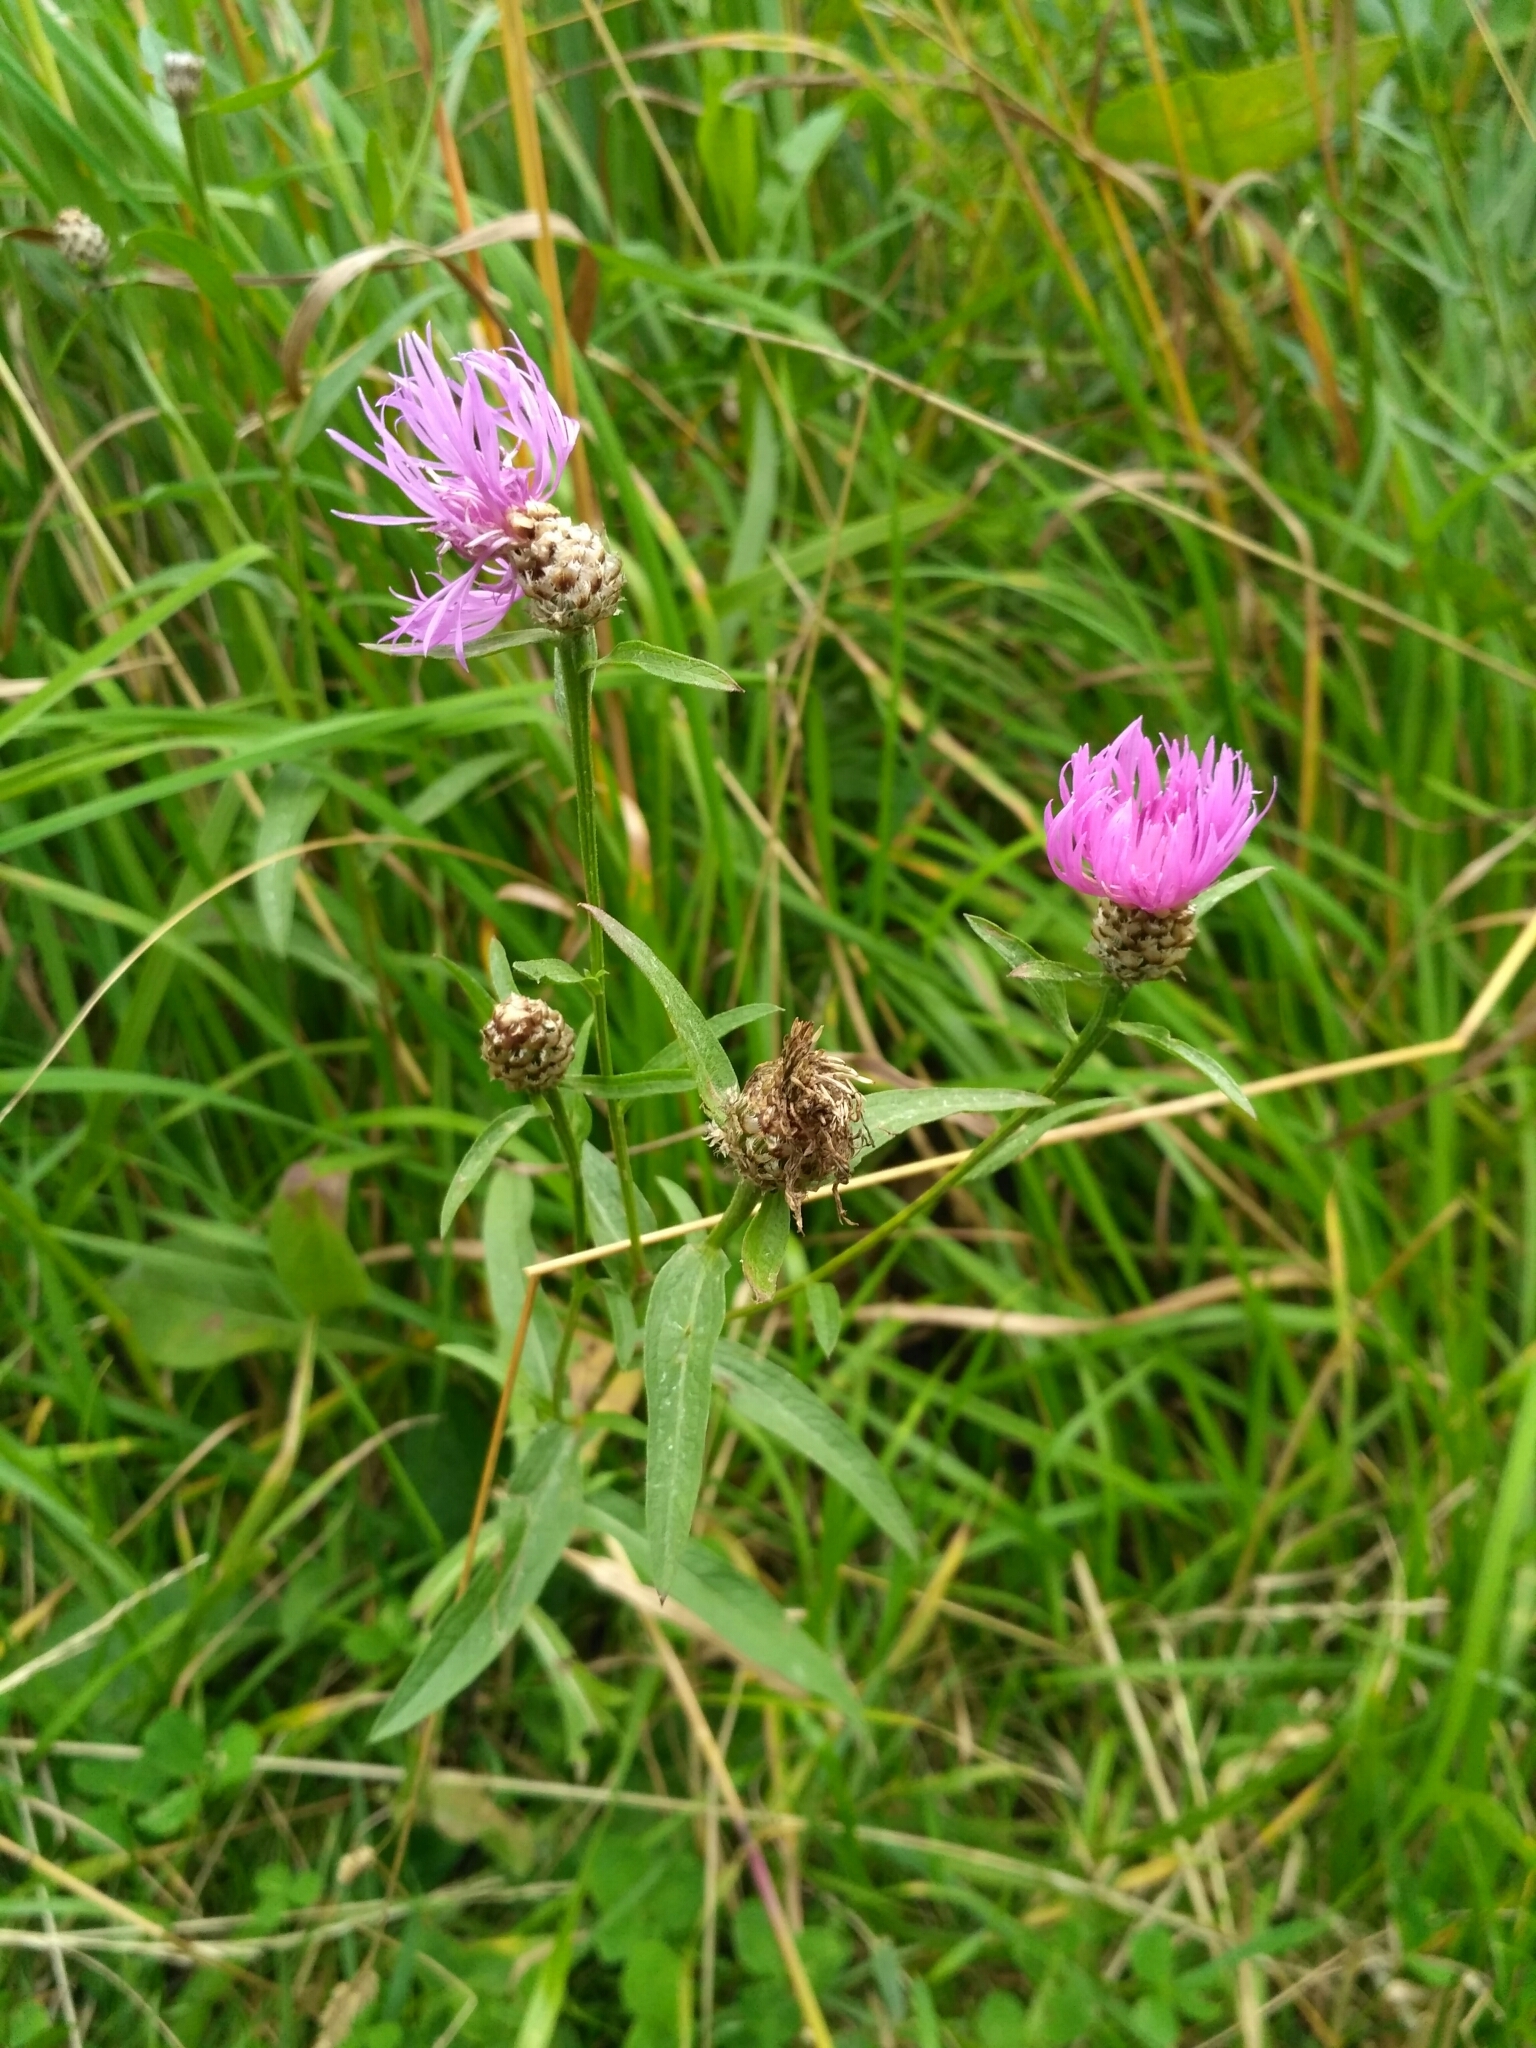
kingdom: Plantae
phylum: Tracheophyta
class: Magnoliopsida
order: Asterales
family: Asteraceae
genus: Centaurea
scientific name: Centaurea jacea
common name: Brown knapweed
